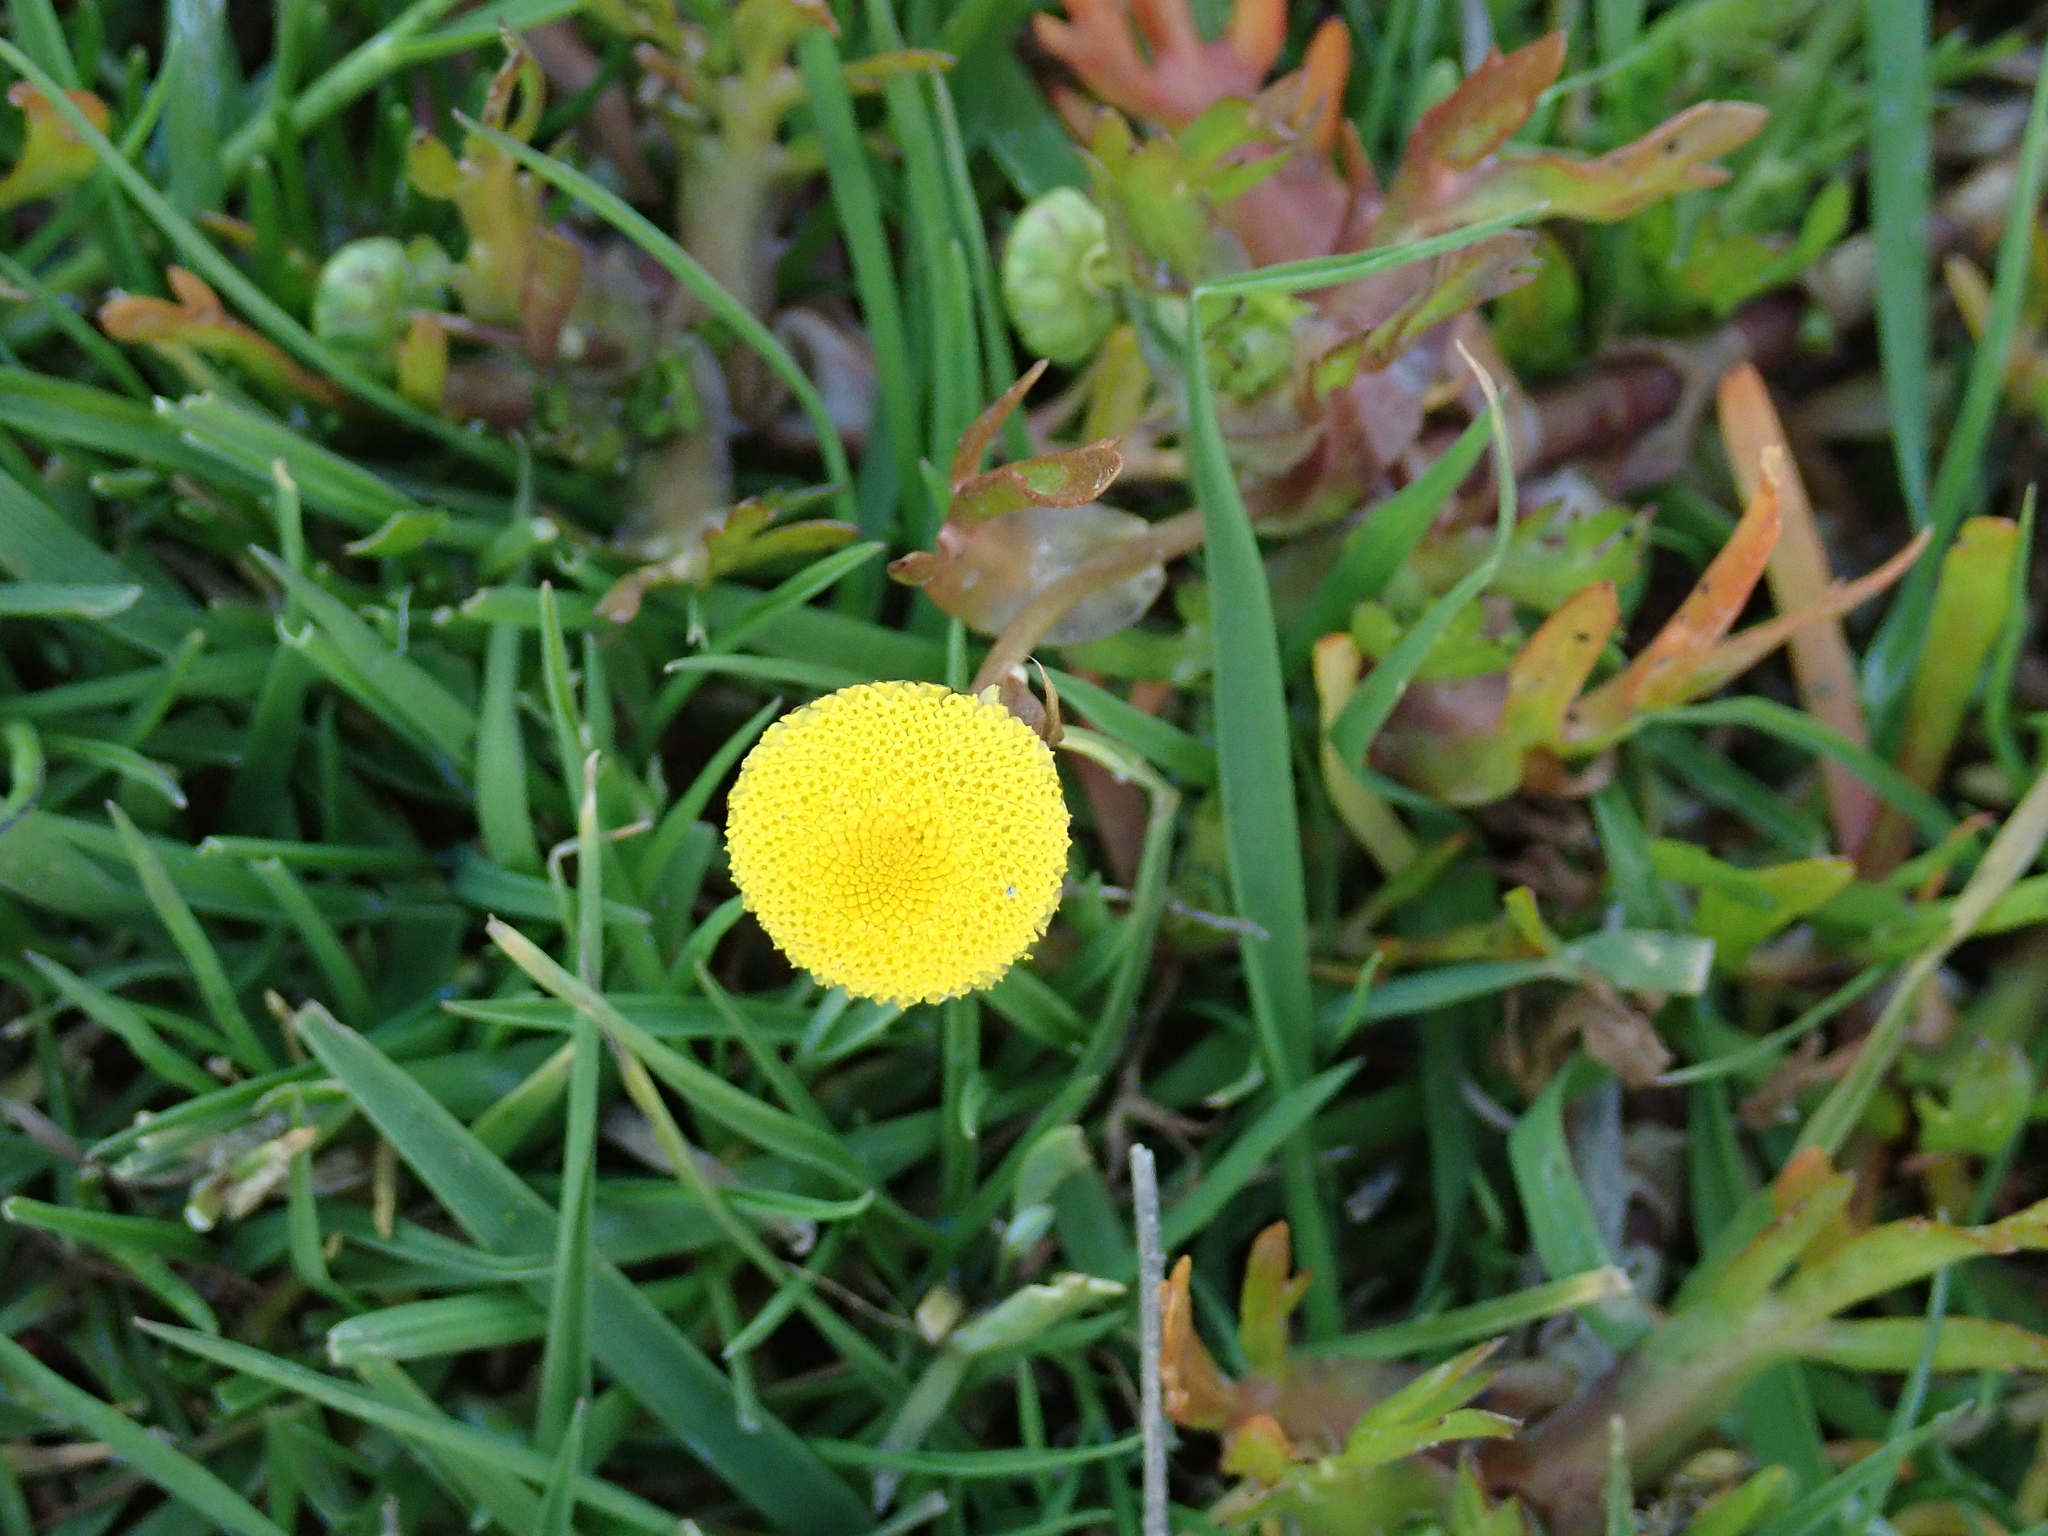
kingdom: Plantae
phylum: Tracheophyta
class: Magnoliopsida
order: Asterales
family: Asteraceae
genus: Cotula
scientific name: Cotula coronopifolia
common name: Buttonweed
